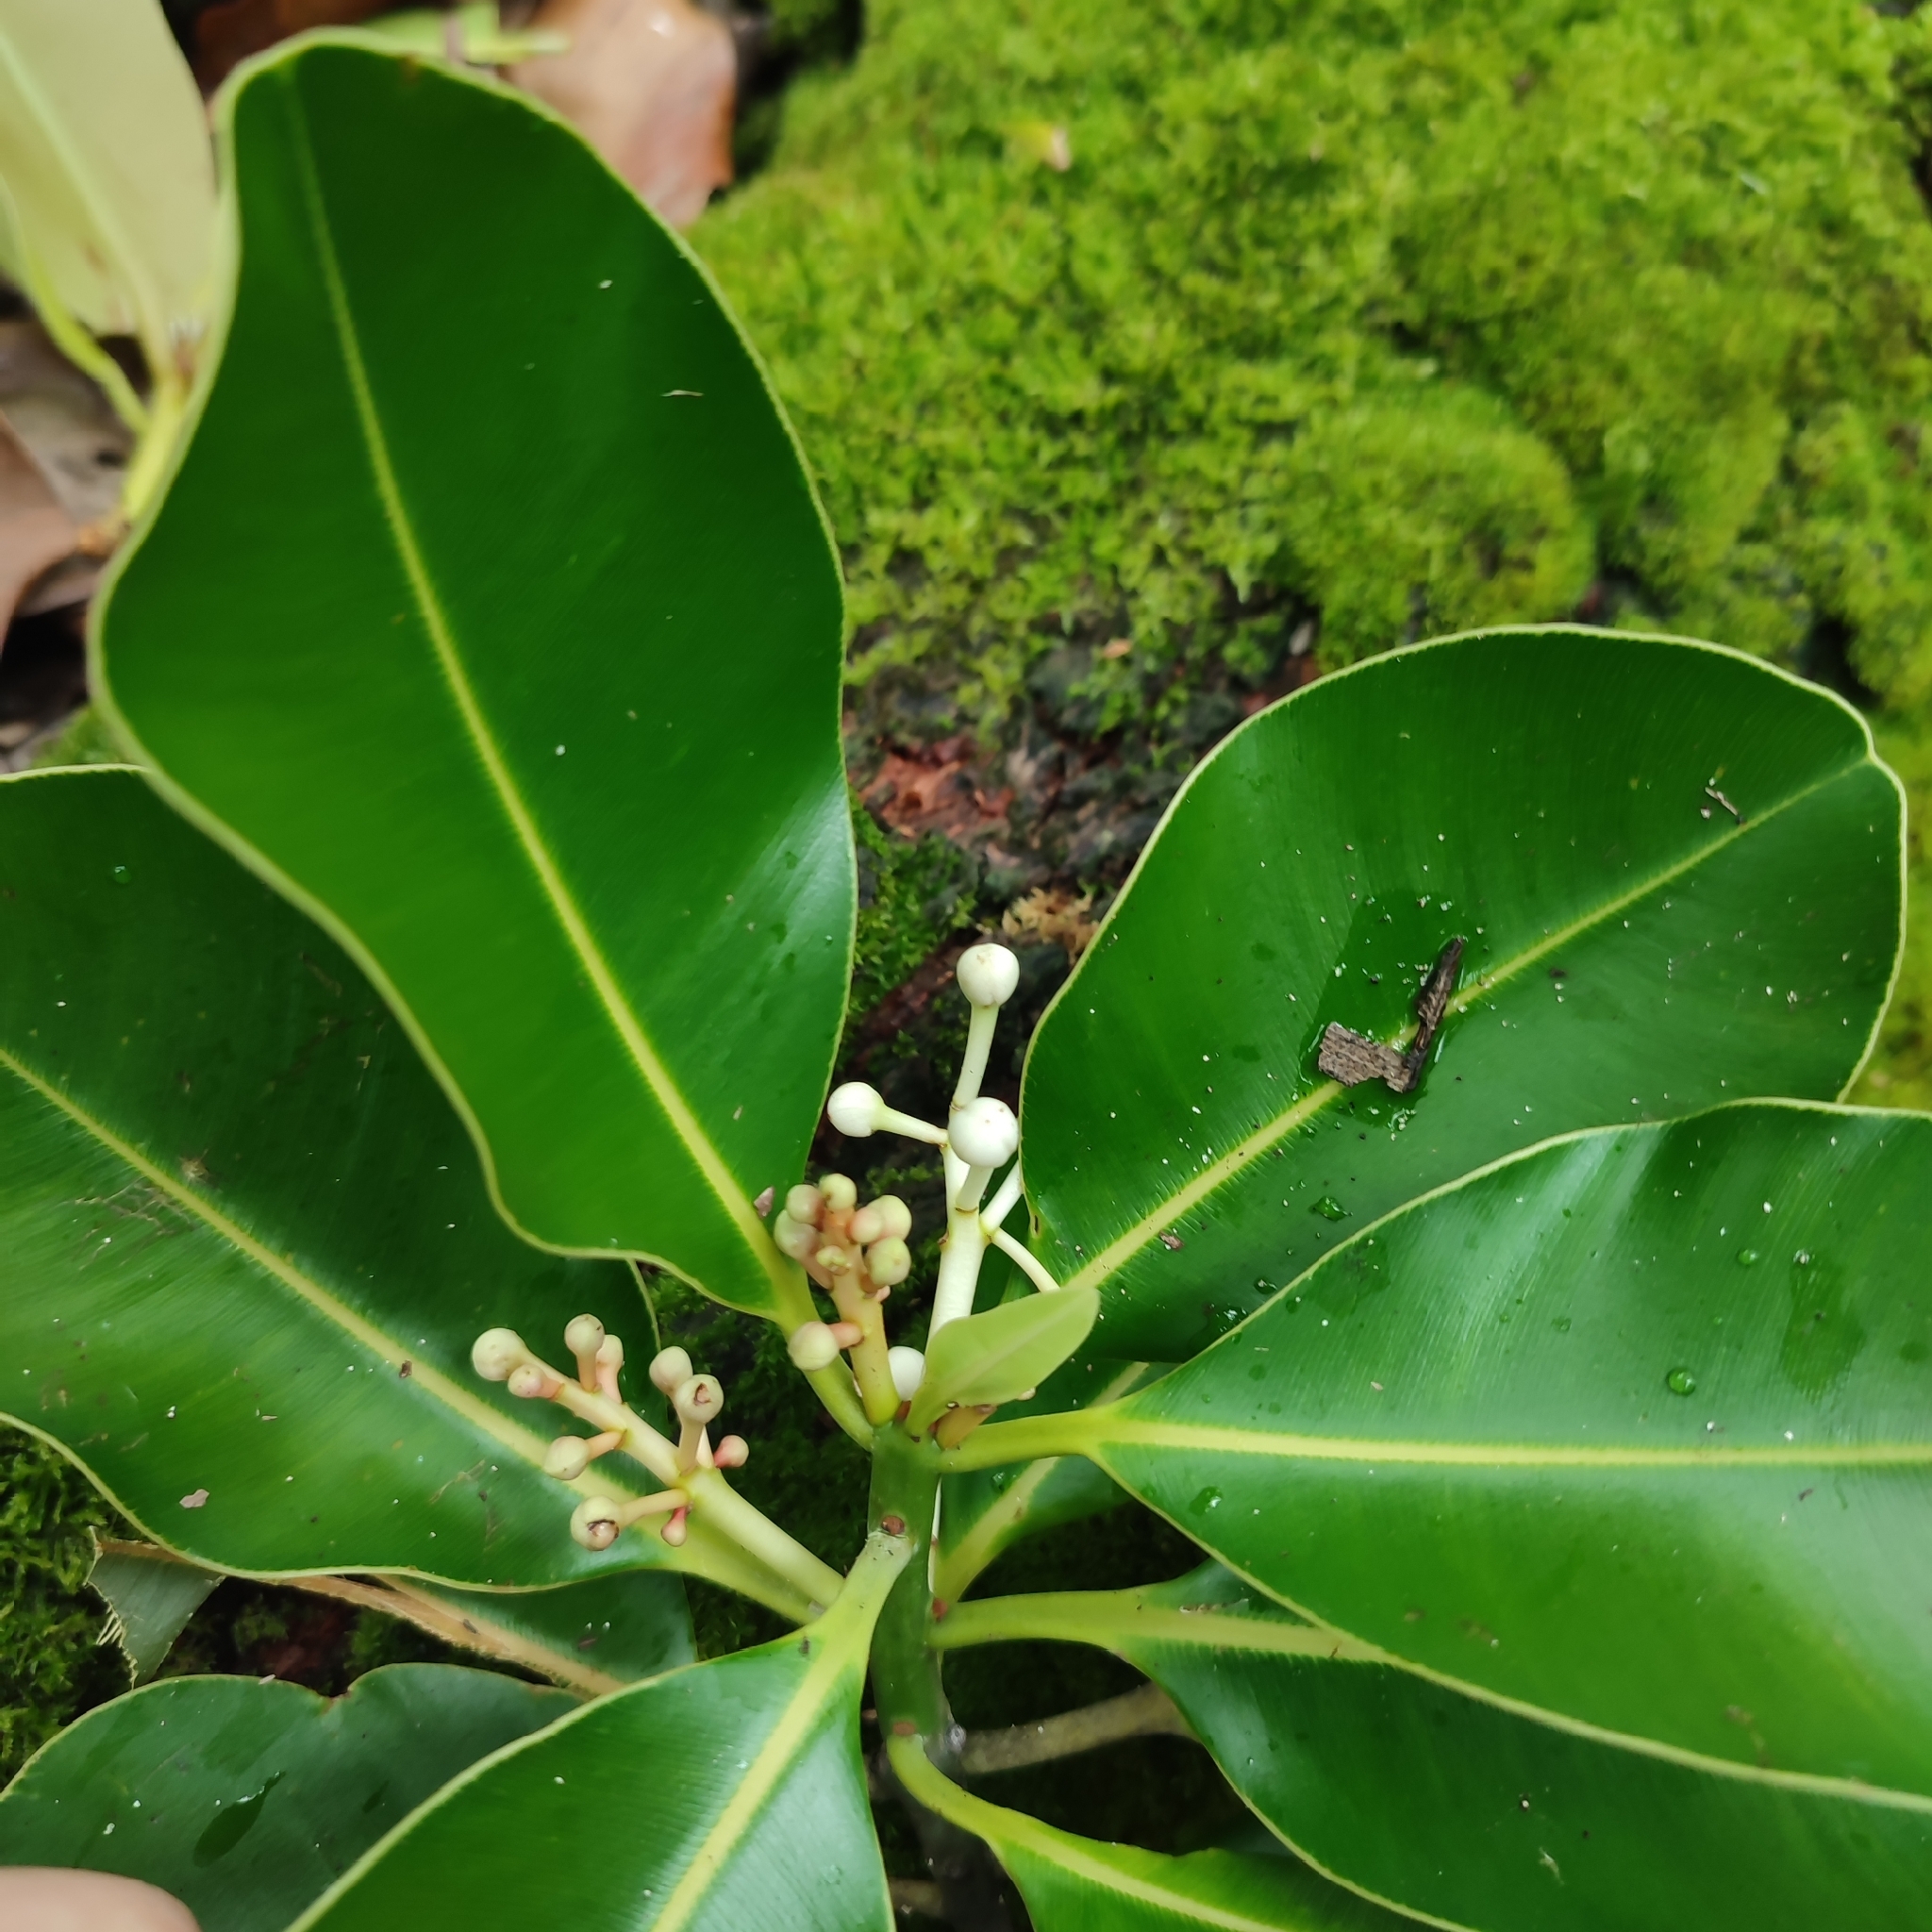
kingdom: Plantae
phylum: Tracheophyta
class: Magnoliopsida
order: Malpighiales
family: Calophyllaceae
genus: Calophyllum
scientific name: Calophyllum inophyllum
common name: Alexandrian laurel
